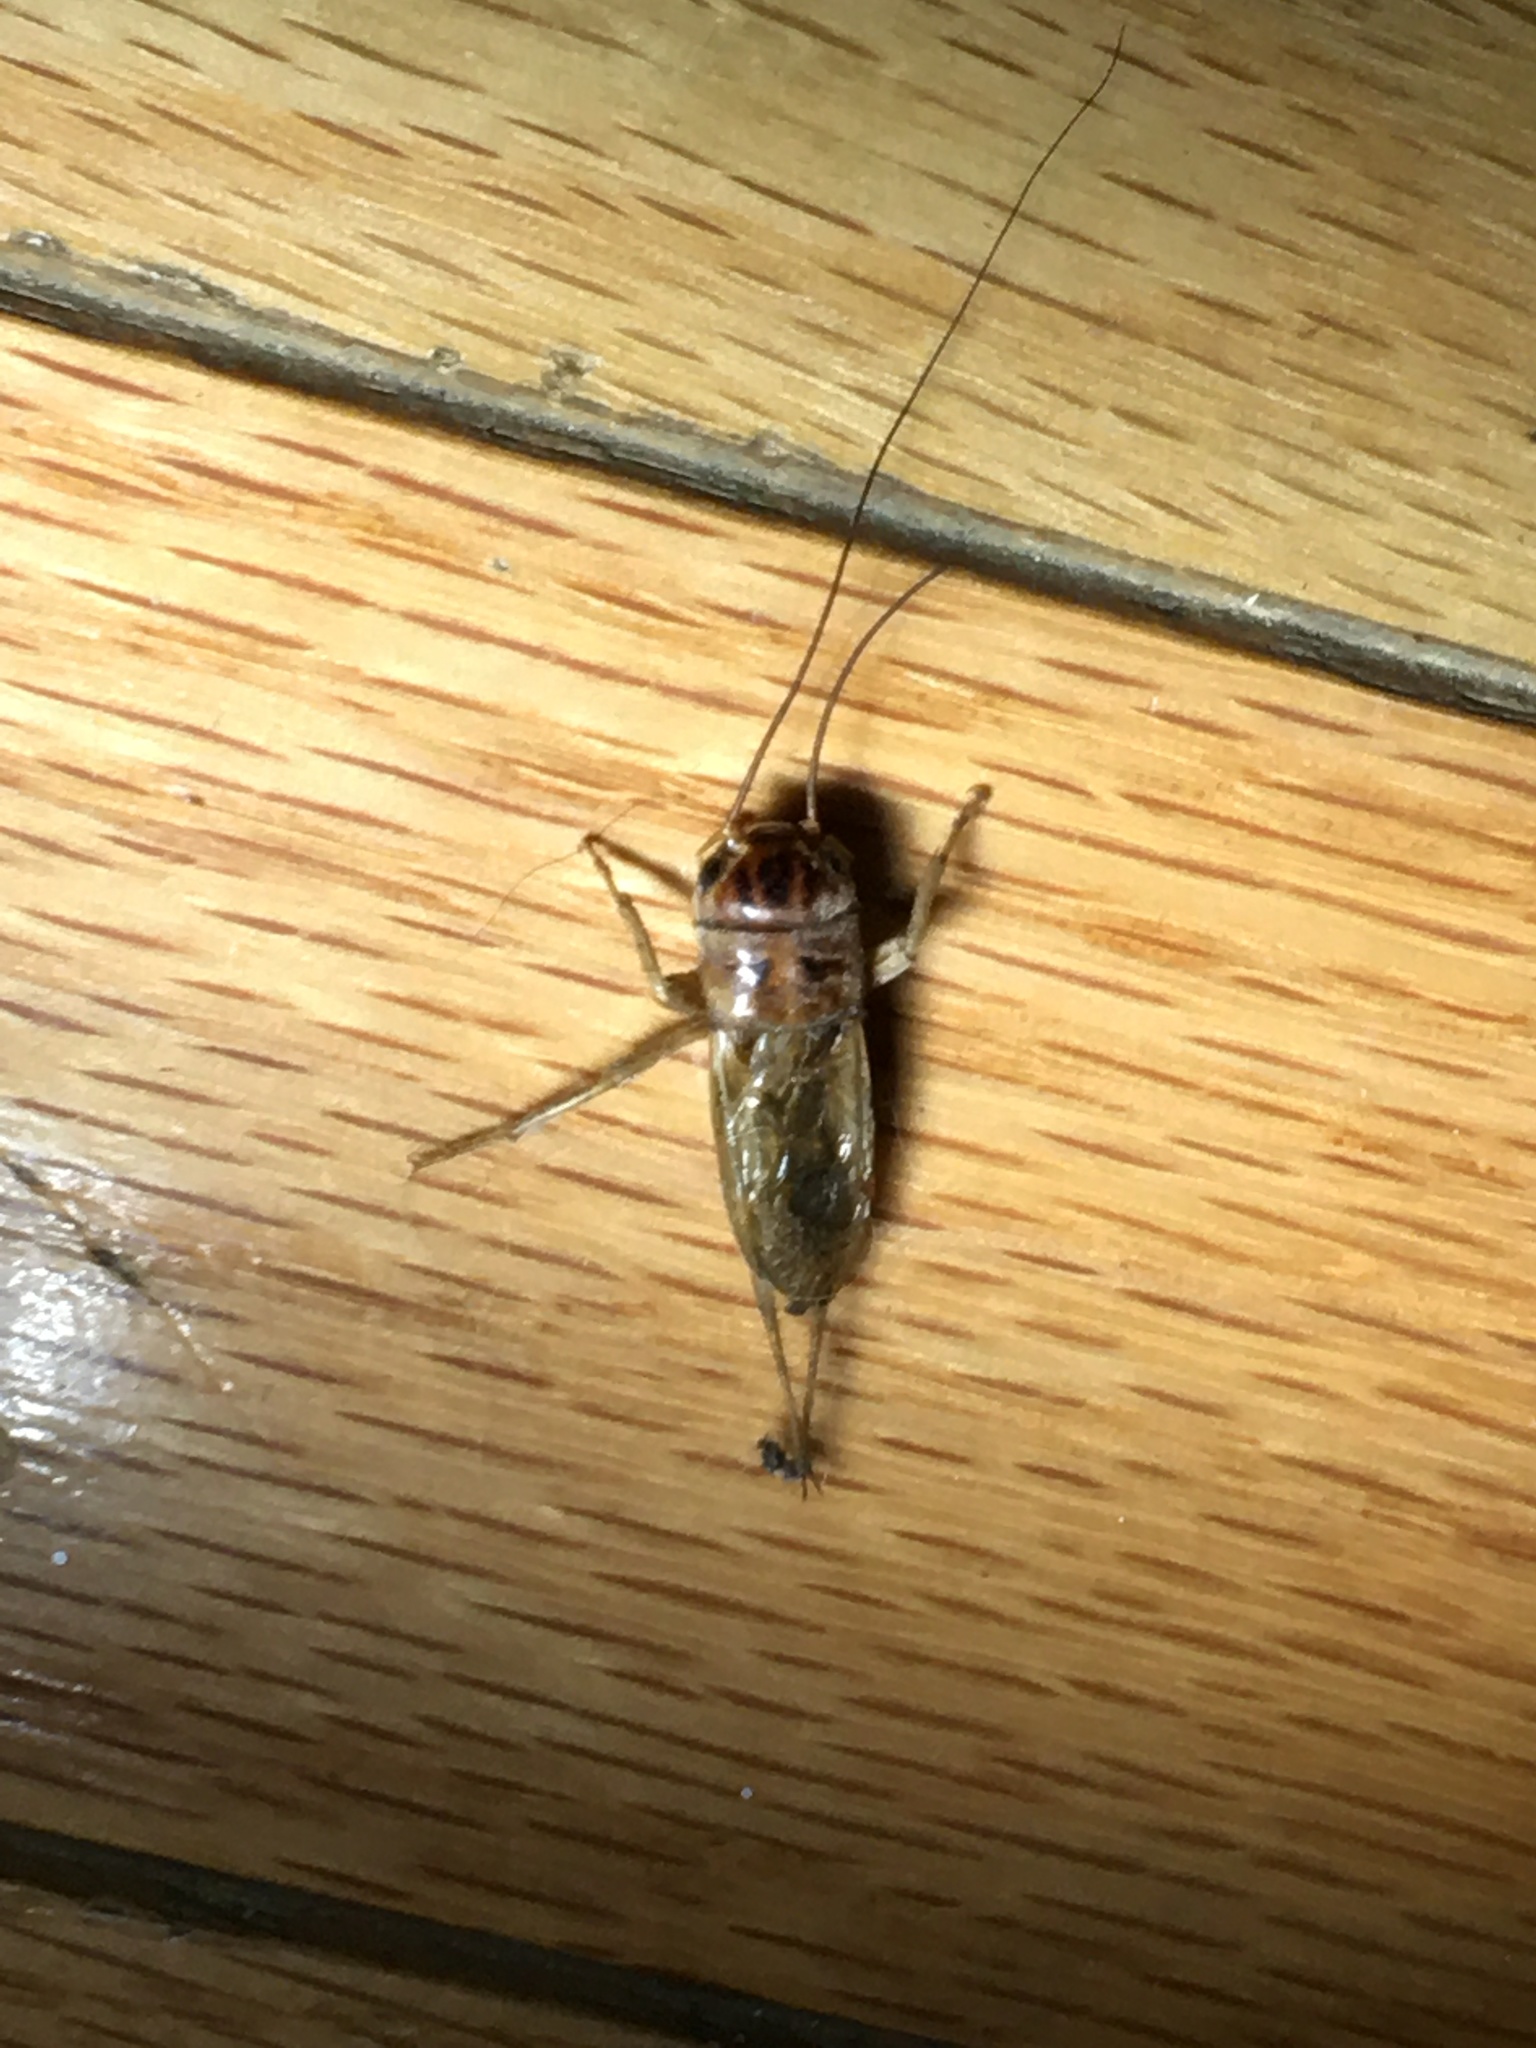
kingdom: Animalia
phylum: Arthropoda
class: Insecta
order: Orthoptera
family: Gryllidae
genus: Gryllus
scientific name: Gryllus lineaticeps
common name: Variable field cricket
